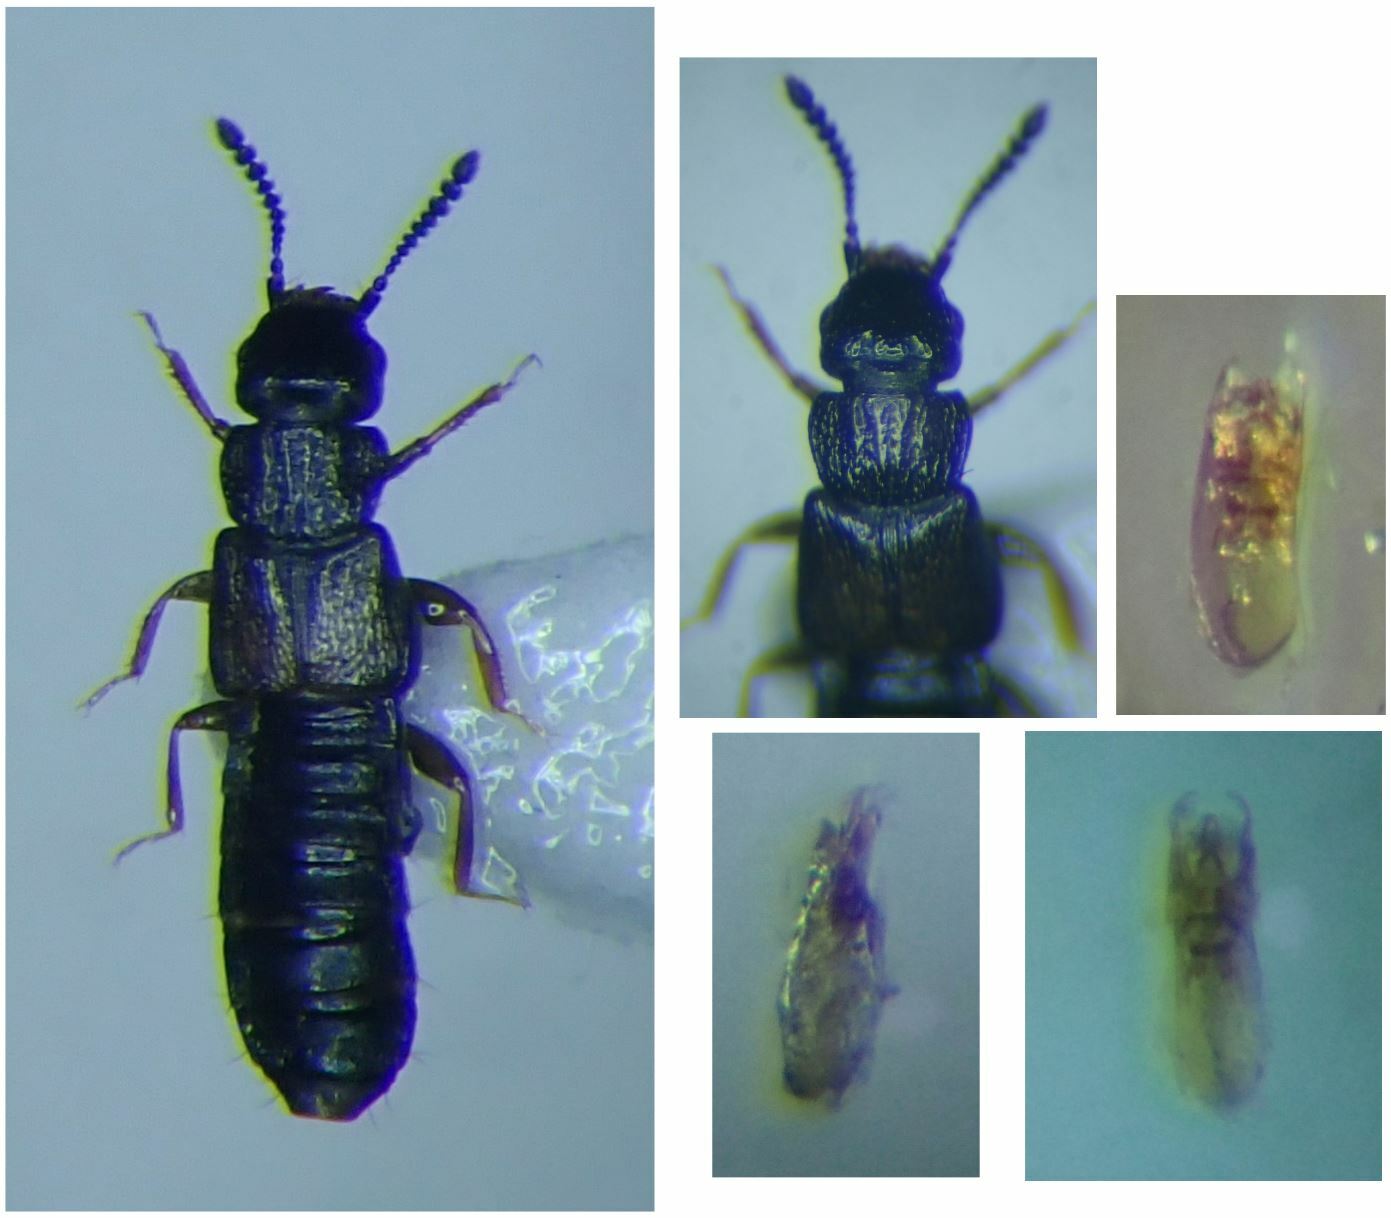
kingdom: Animalia
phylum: Arthropoda
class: Insecta
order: Coleoptera
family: Staphylinidae
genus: Anotylus
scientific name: Anotylus nitidulus
